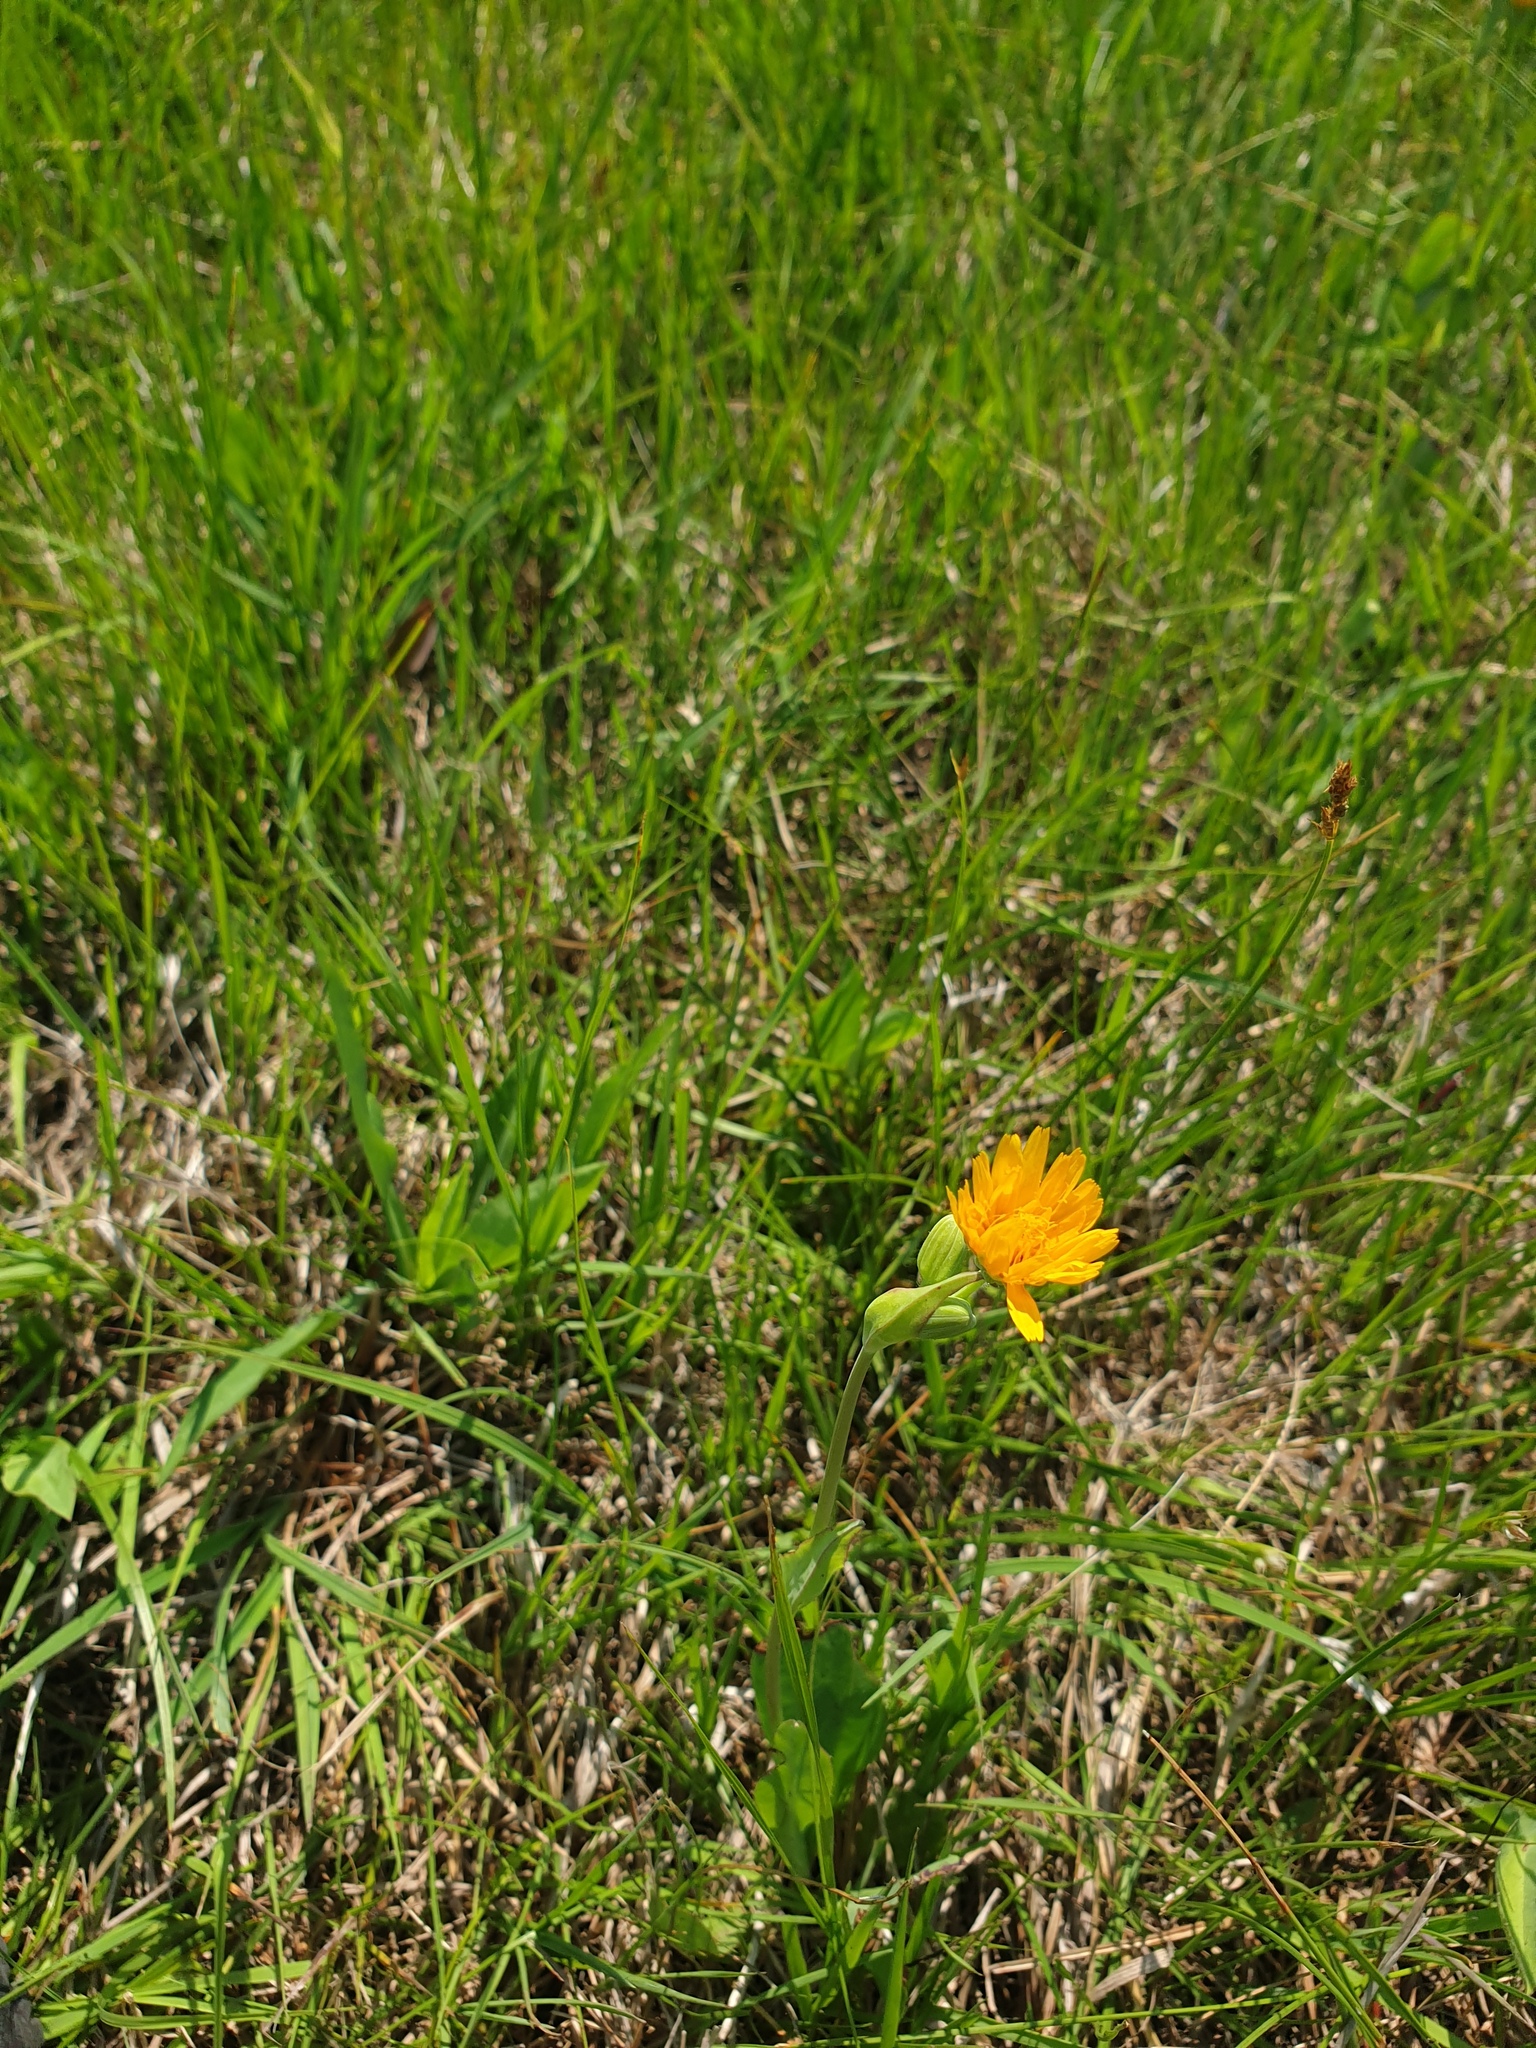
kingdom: Plantae
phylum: Tracheophyta
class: Magnoliopsida
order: Asterales
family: Asteraceae
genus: Krigia
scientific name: Krigia biflora
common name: Orange dwarf-dandelion
